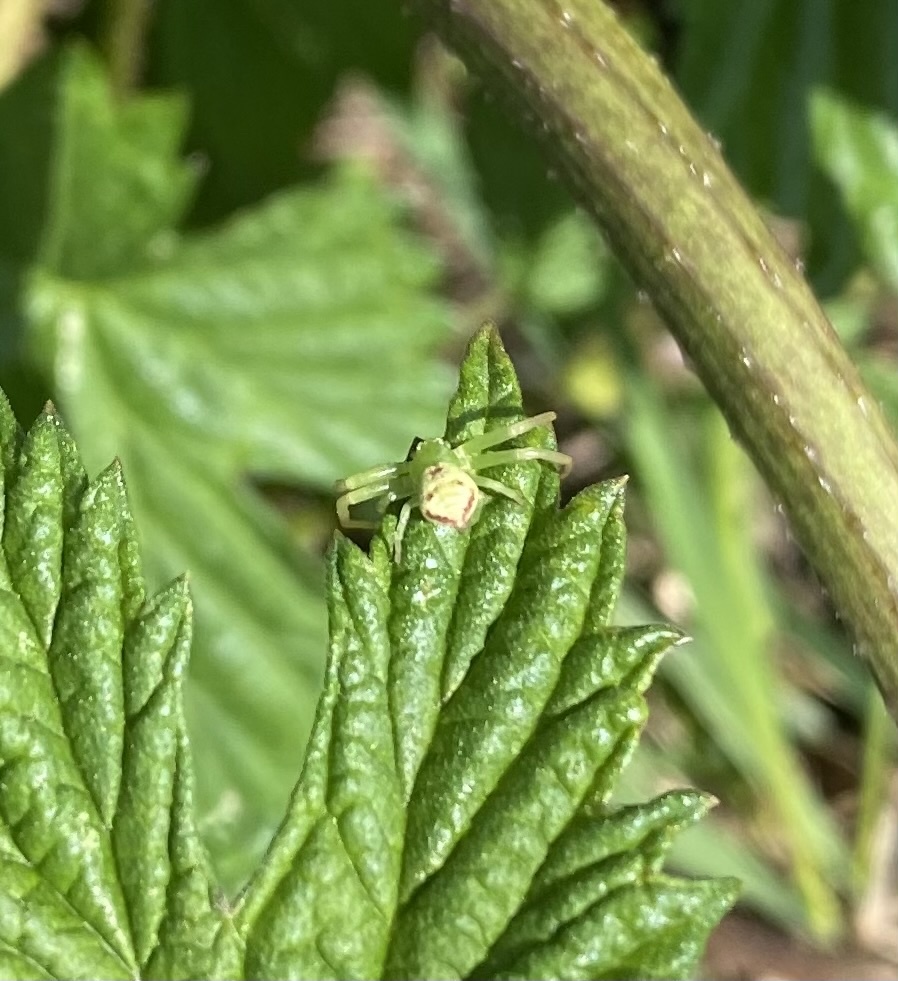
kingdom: Animalia
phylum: Arthropoda
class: Arachnida
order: Araneae
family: Thomisidae
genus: Ebrechtella
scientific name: Ebrechtella tricuspidata
